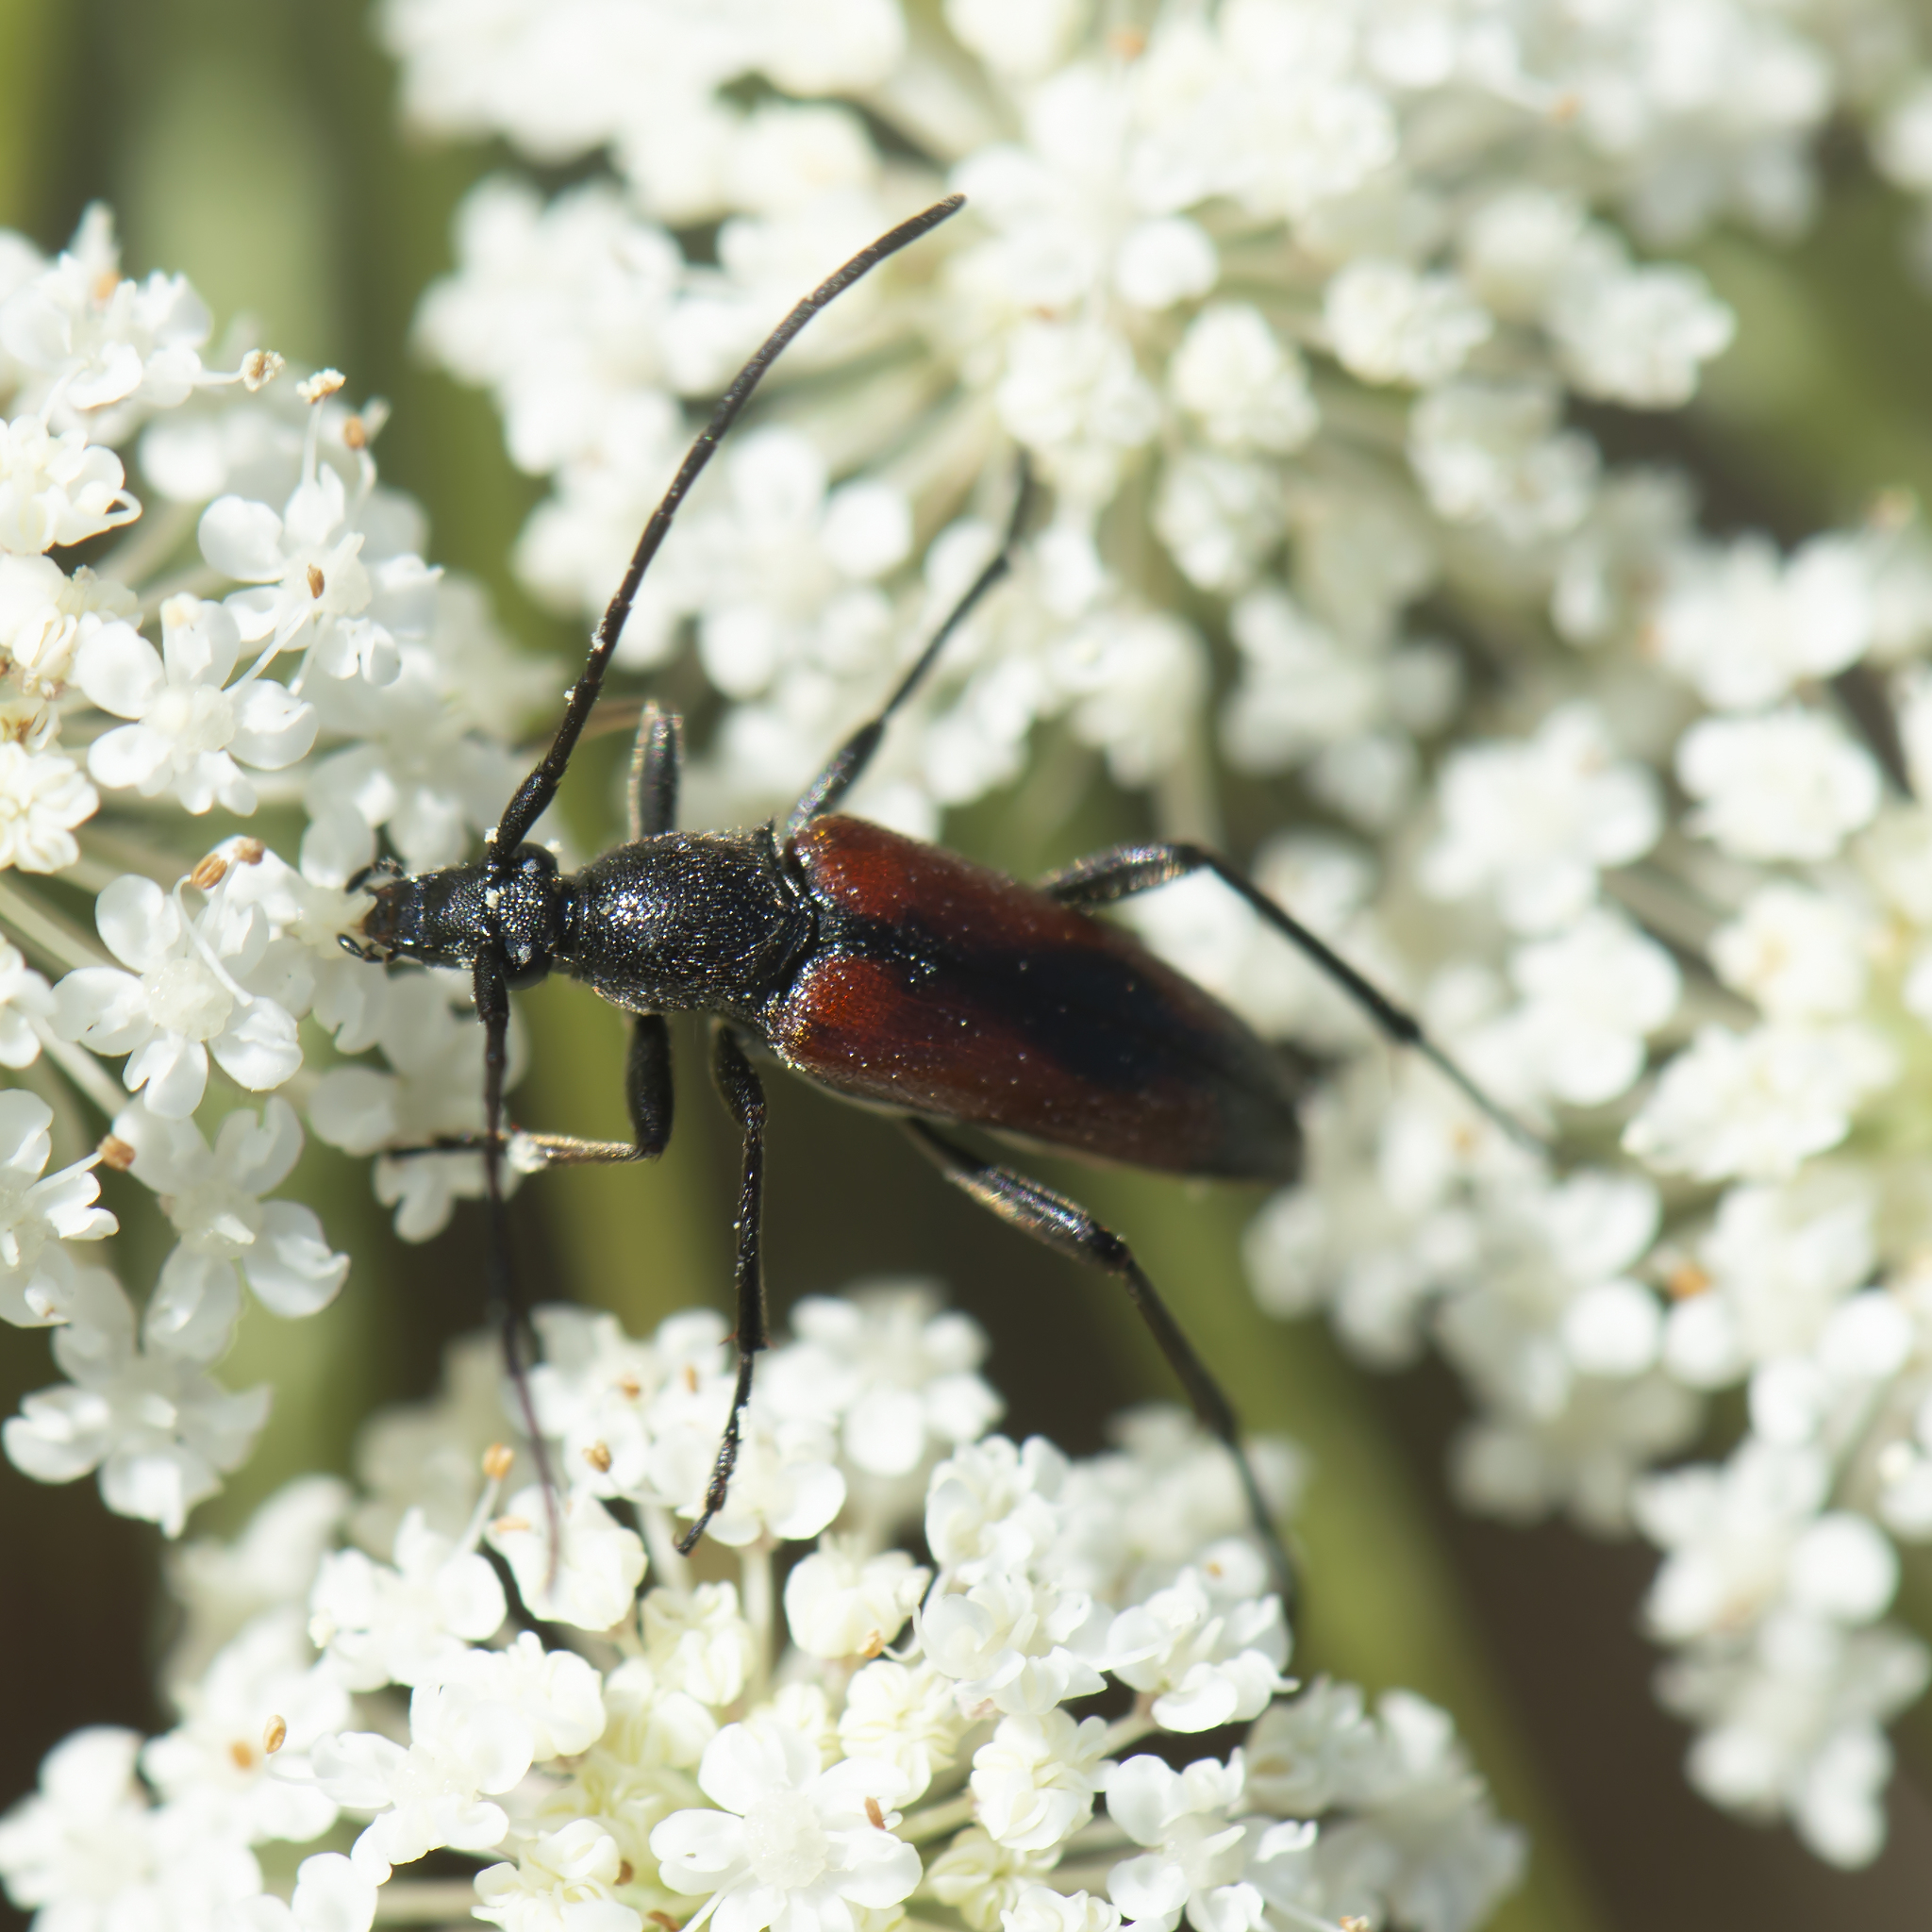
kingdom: Animalia
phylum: Arthropoda
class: Insecta
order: Coleoptera
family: Cerambycidae
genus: Stenurella
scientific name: Stenurella bifasciata
